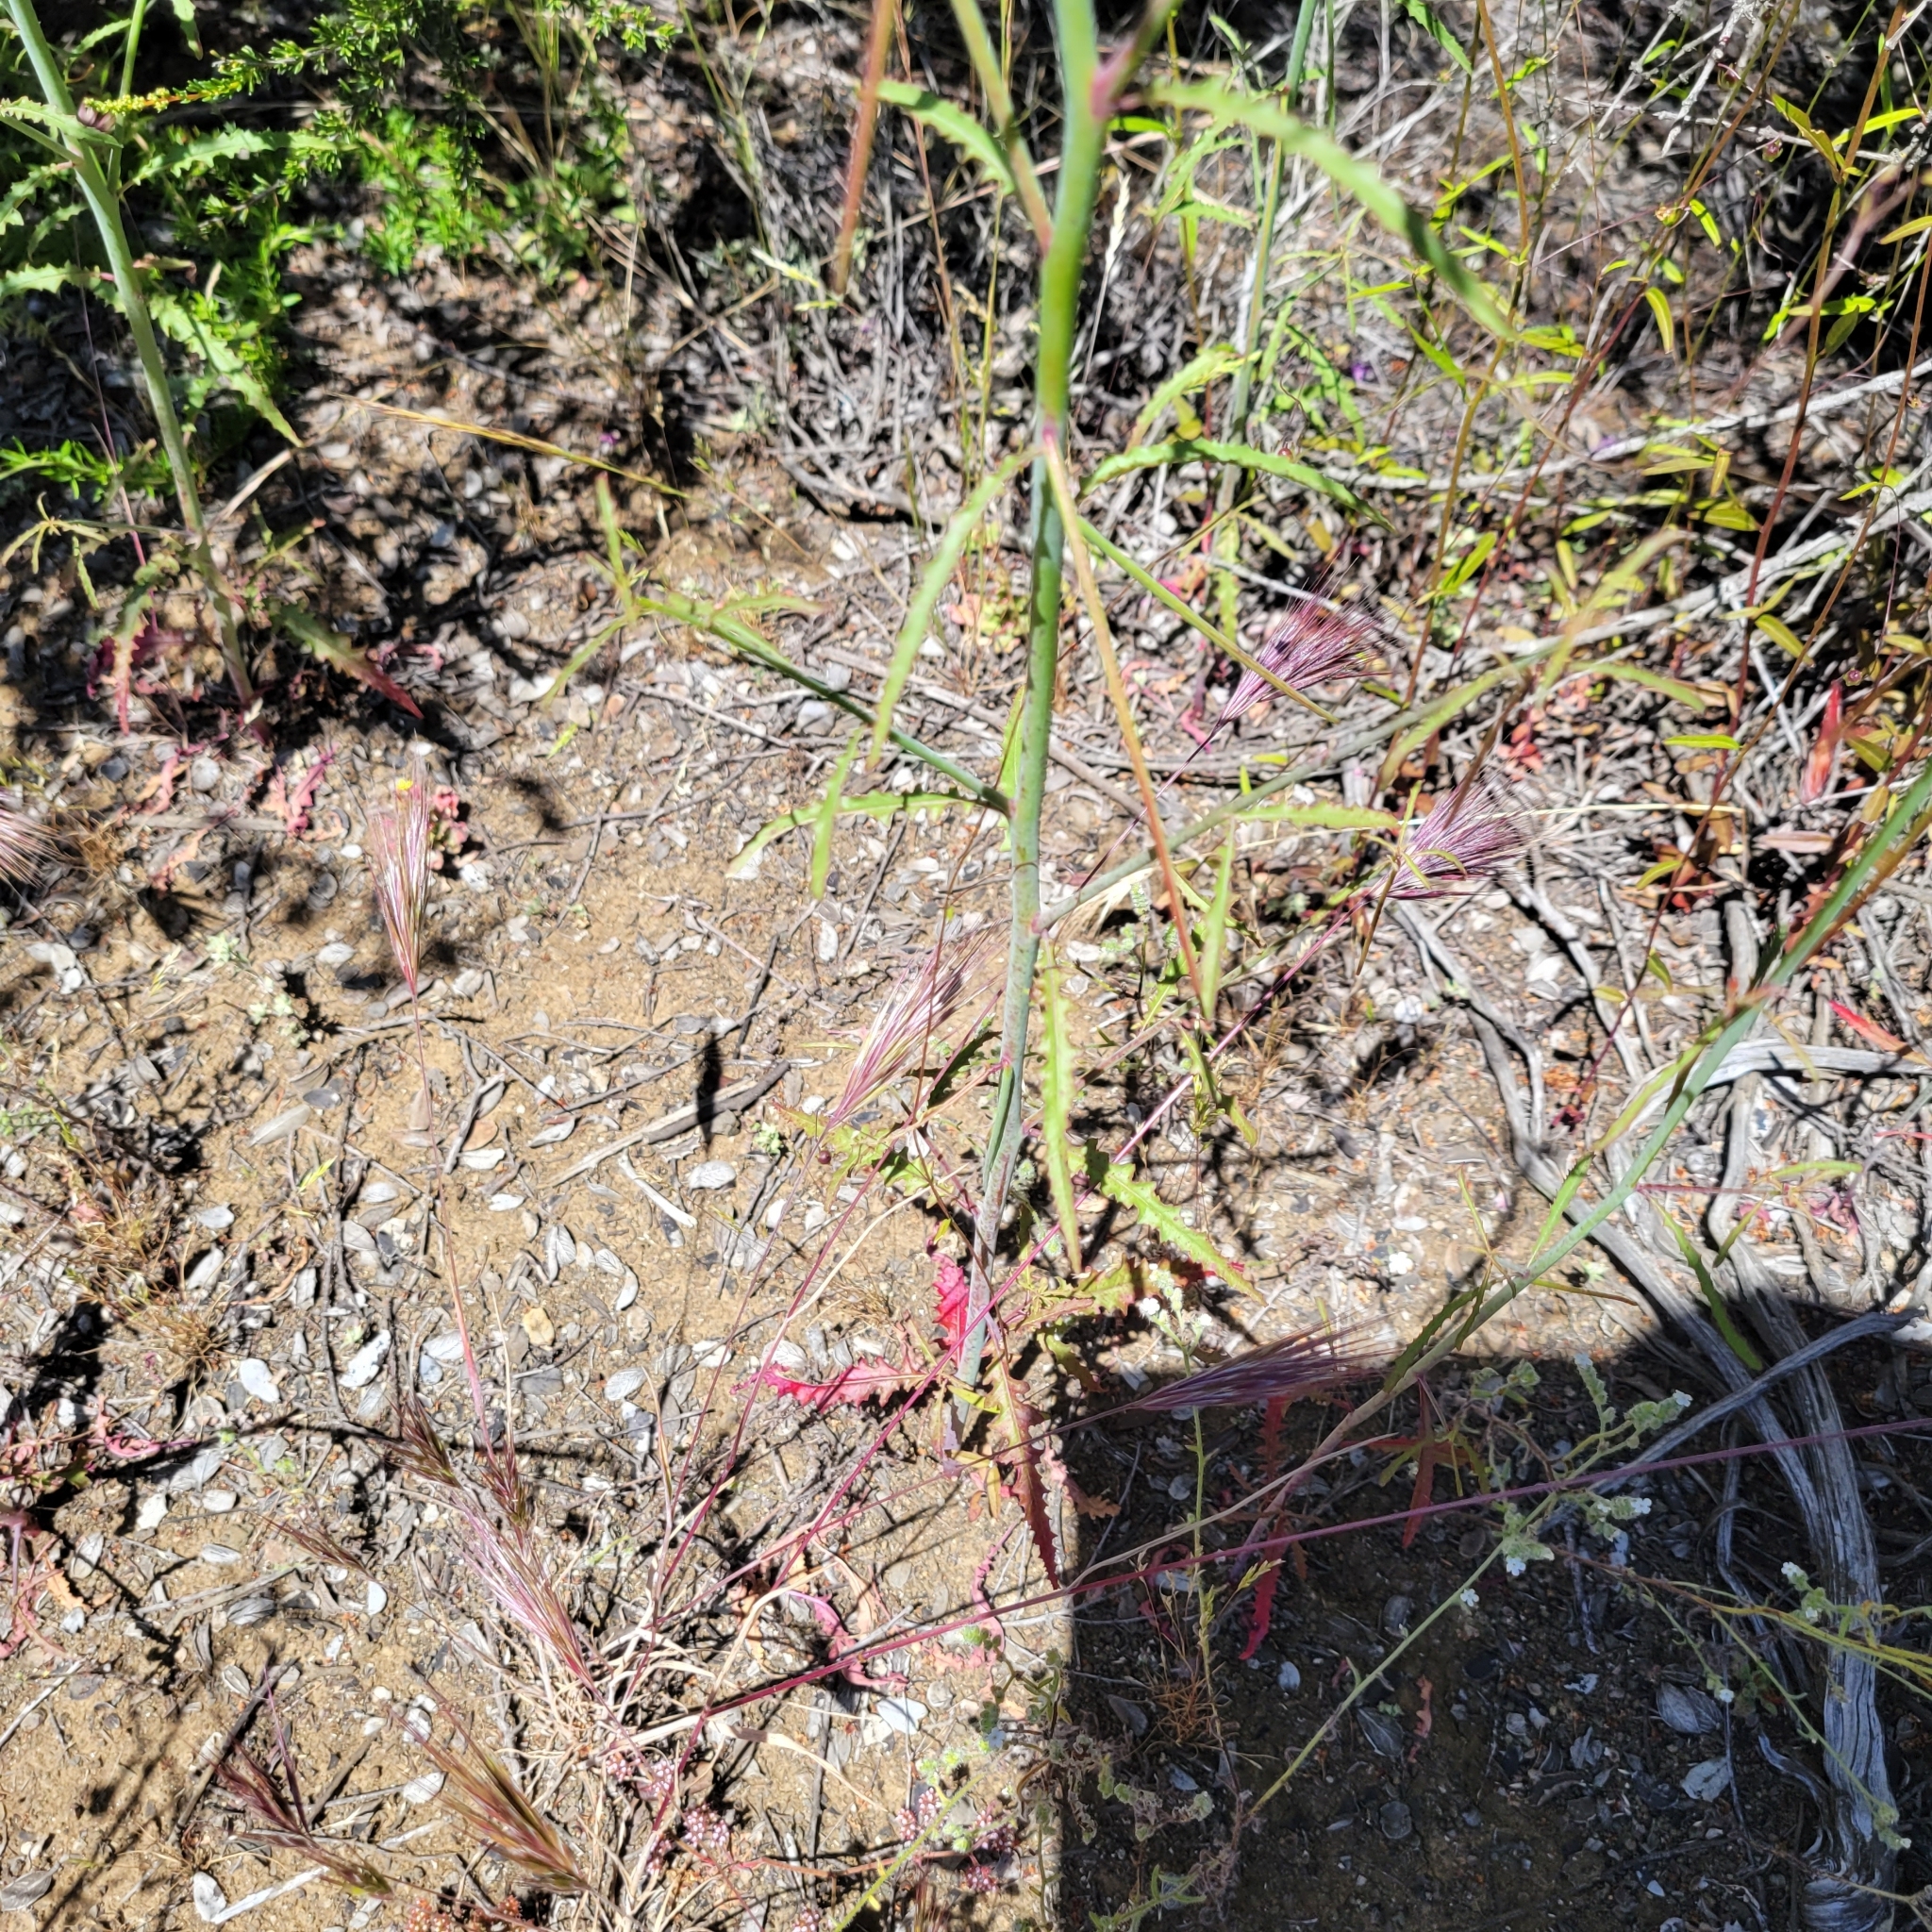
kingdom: Plantae
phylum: Tracheophyta
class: Magnoliopsida
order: Myrtales
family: Onagraceae
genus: Eulobus
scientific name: Eulobus californicus
